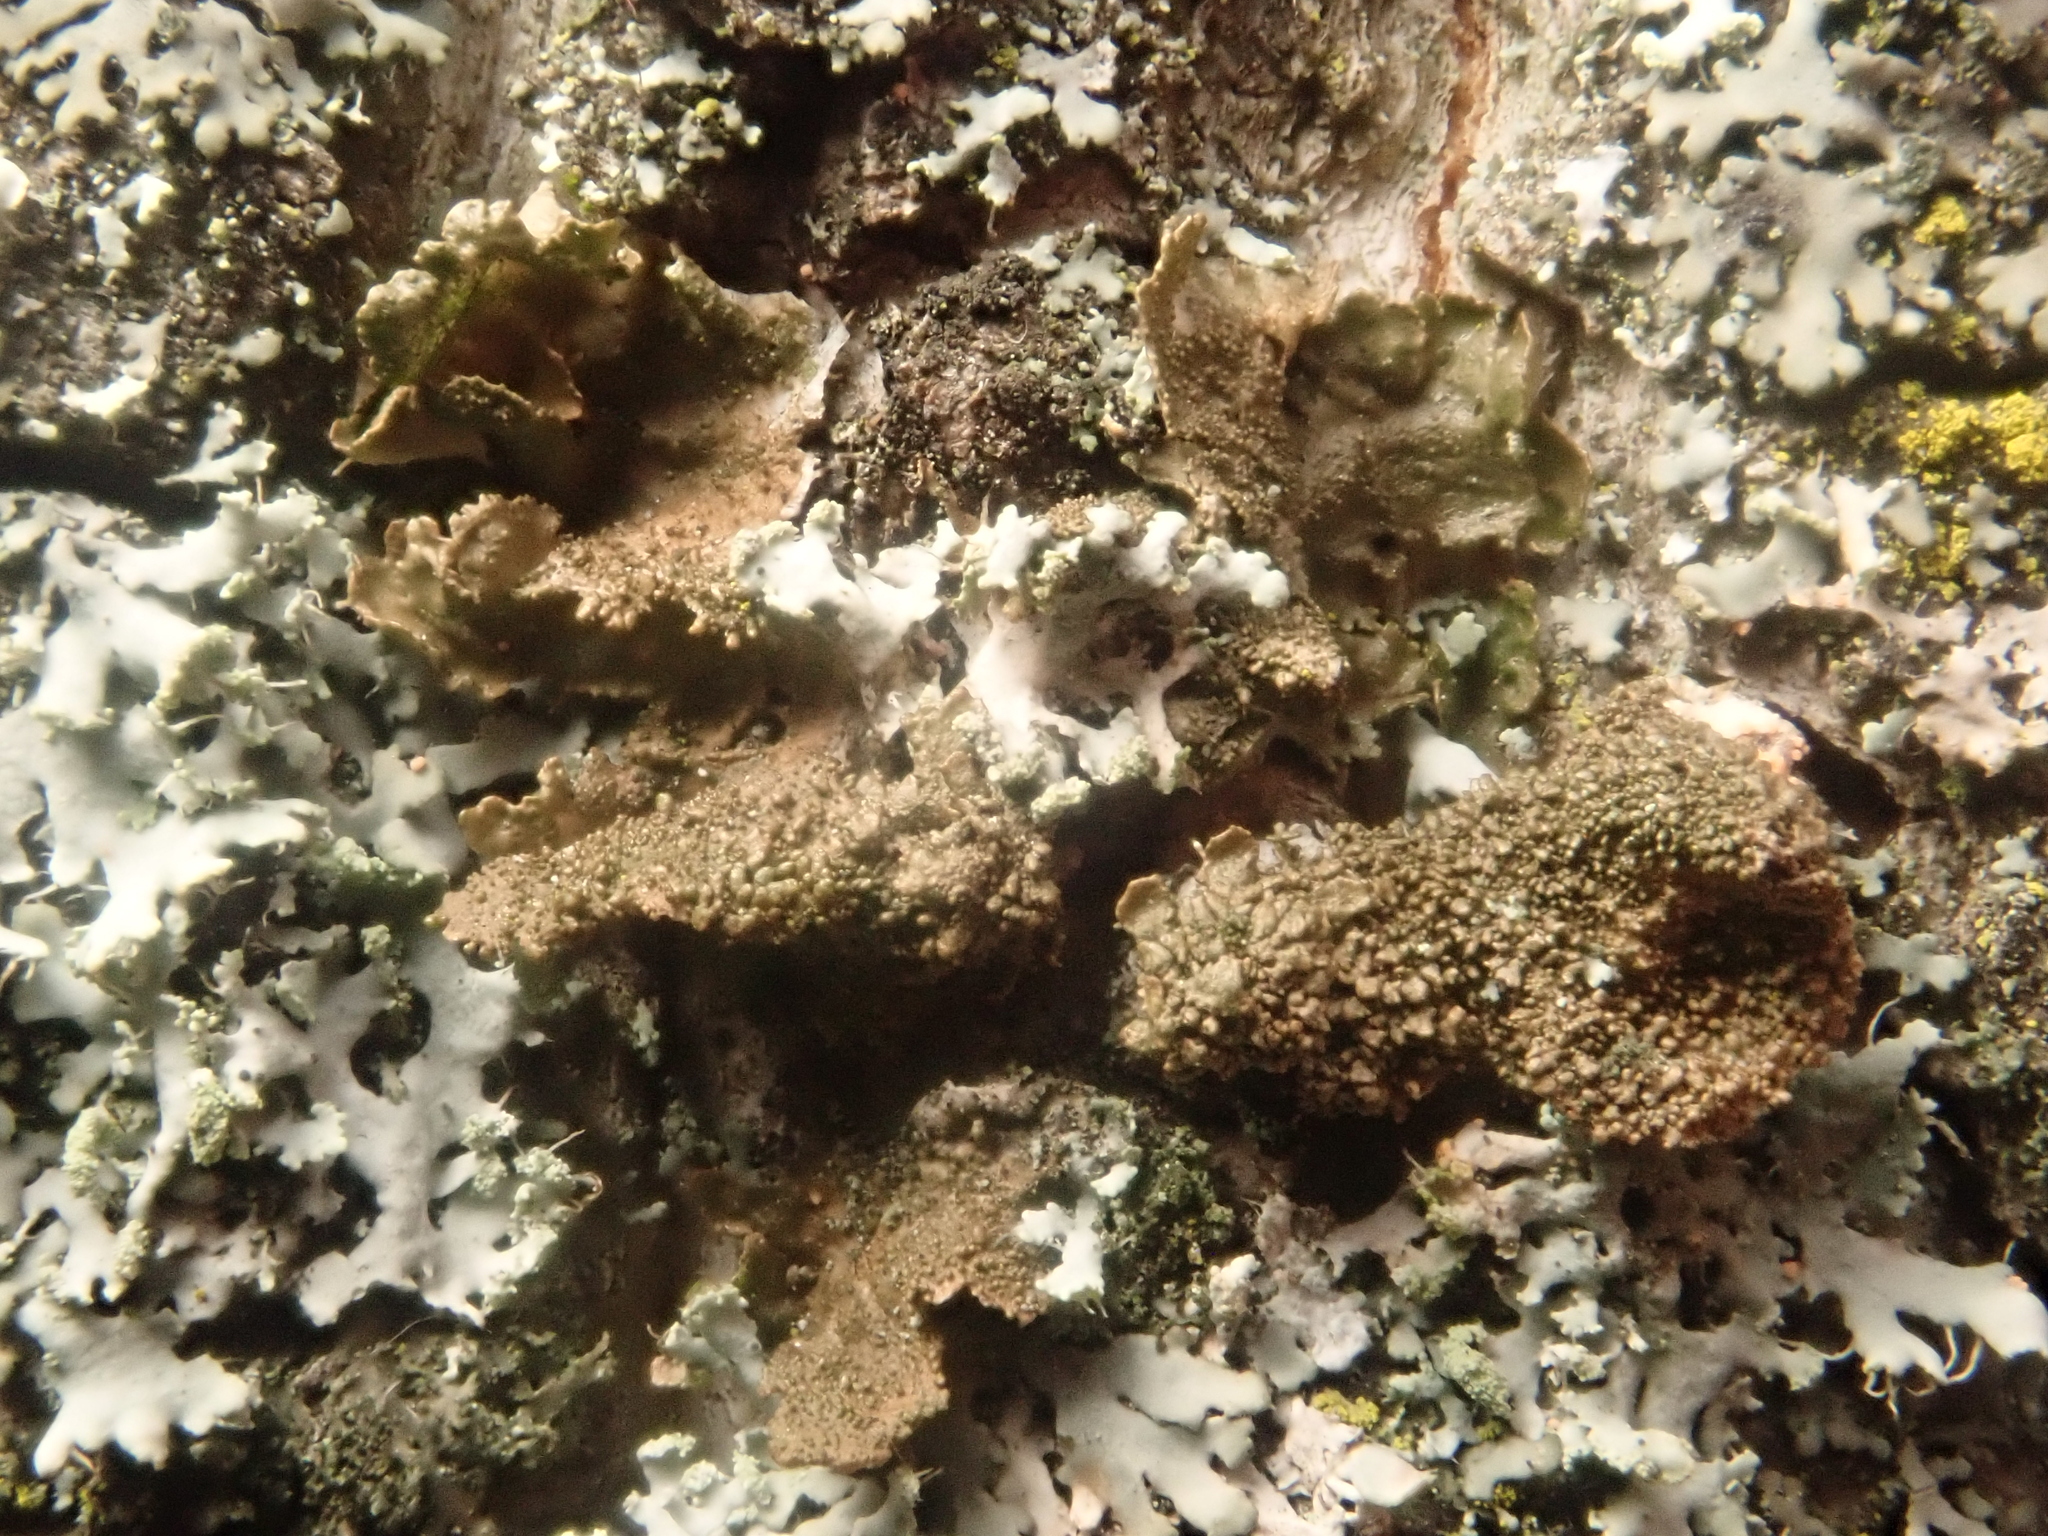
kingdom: Fungi
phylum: Ascomycota
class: Lecanoromycetes
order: Lecanorales
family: Parmeliaceae
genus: Melanohalea
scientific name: Melanohalea exasperatula
